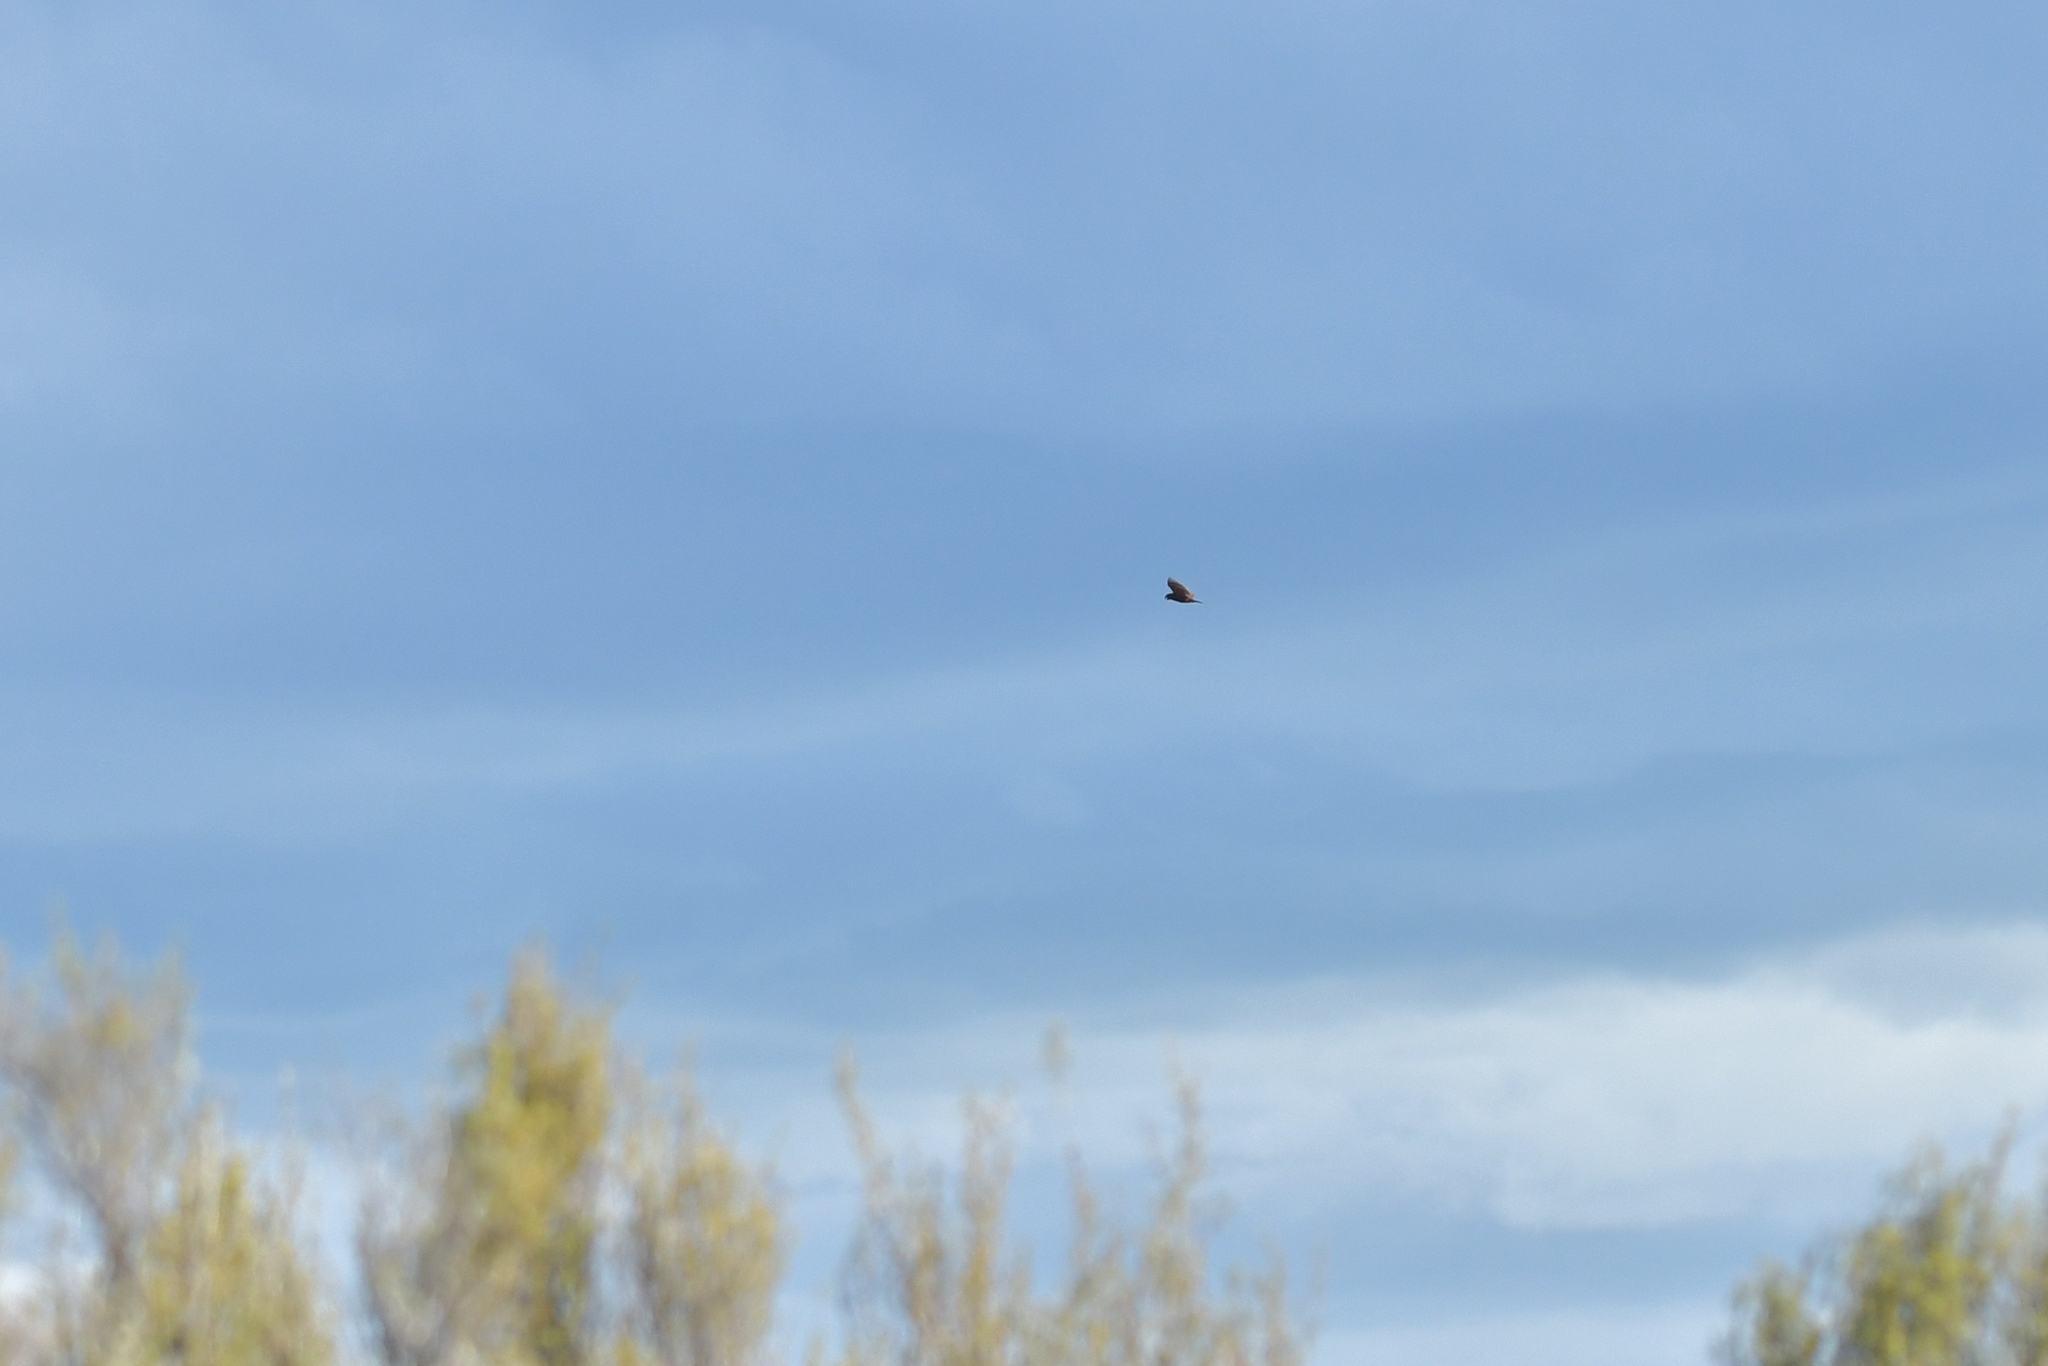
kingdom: Animalia
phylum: Chordata
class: Aves
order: Psittaciformes
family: Psittacidae
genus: Nestor
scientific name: Nestor meridionalis
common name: New zealand kaka
